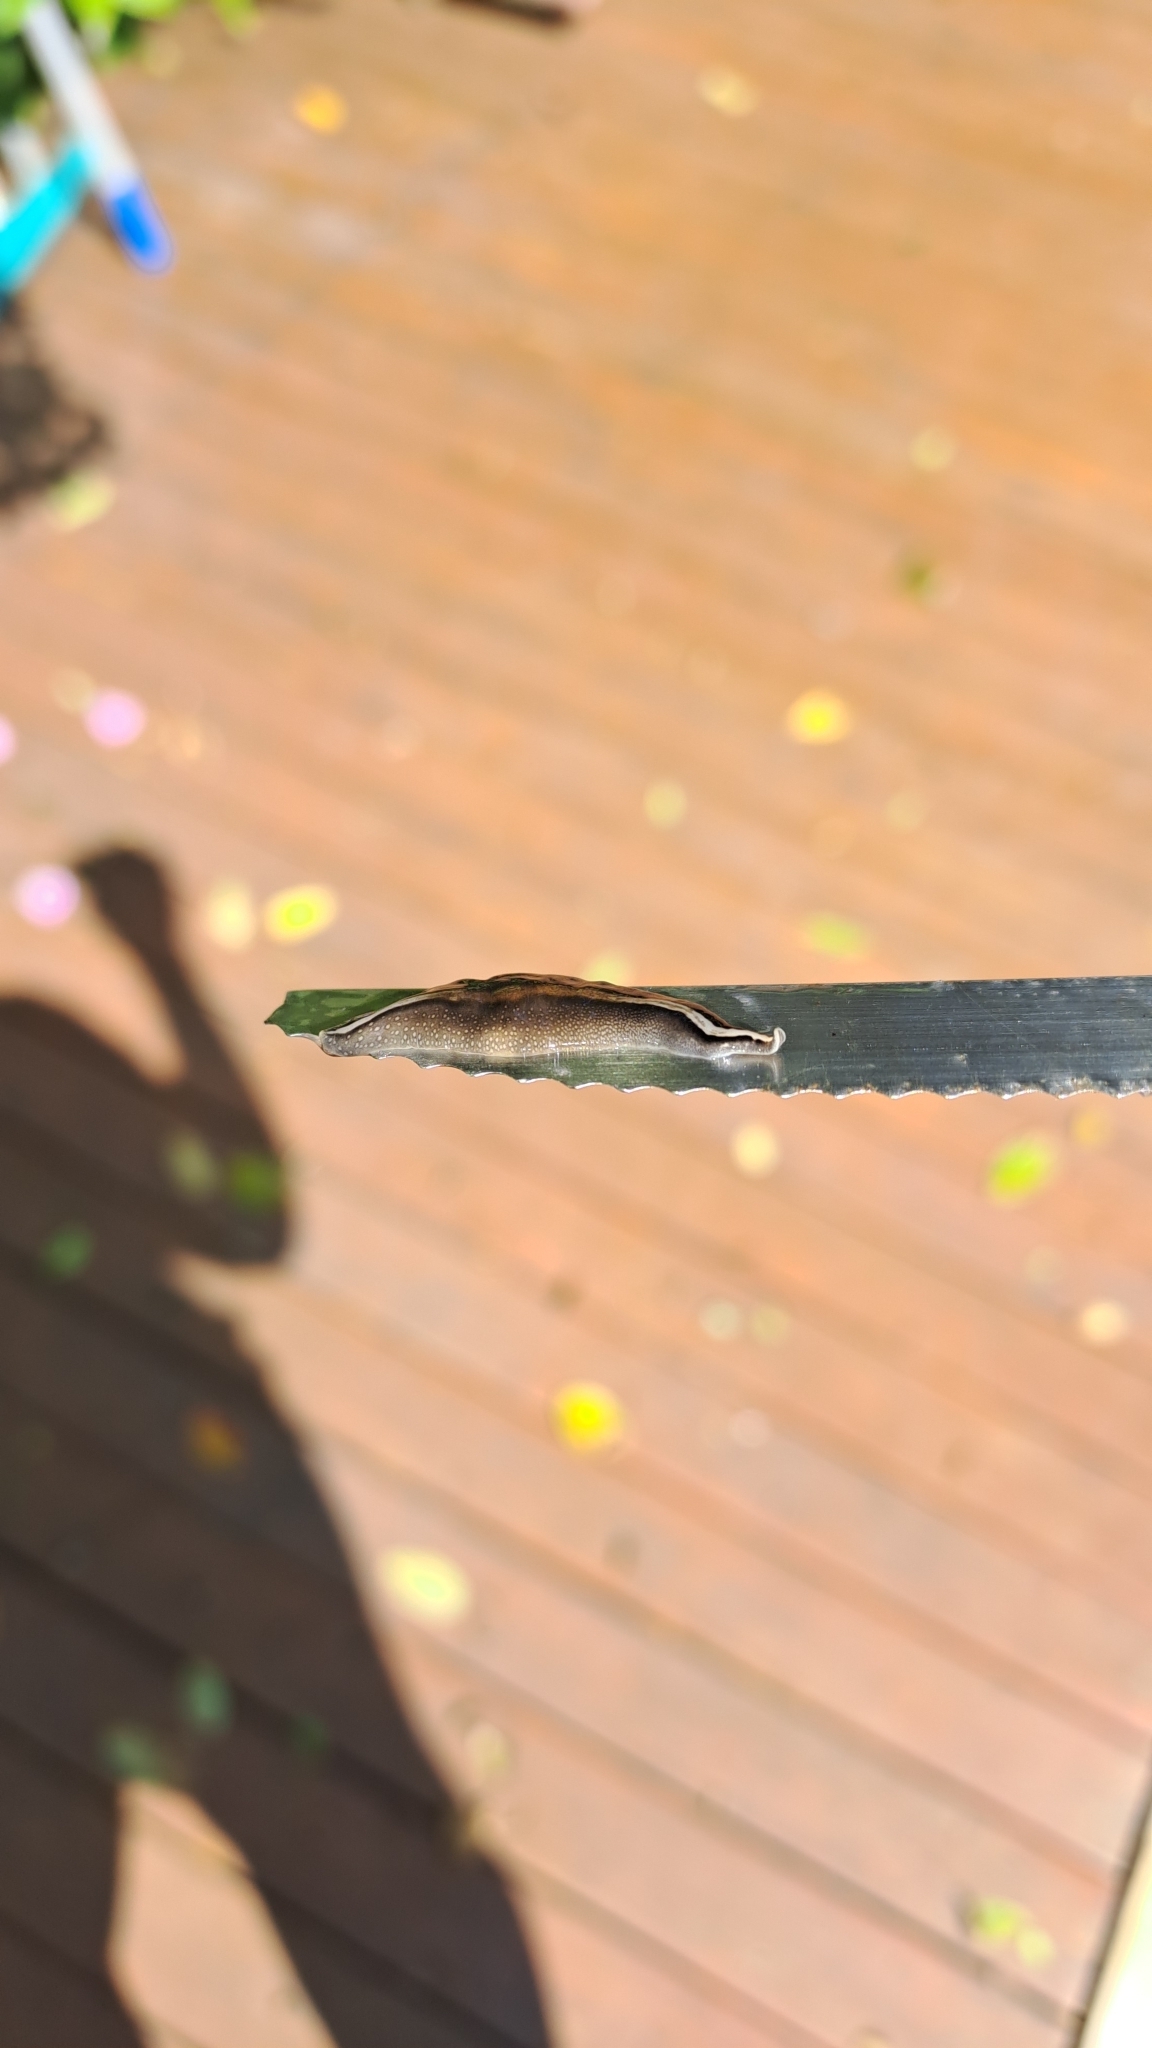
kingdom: Animalia
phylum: Platyhelminthes
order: Tricladida
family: Geoplanidae
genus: Obama
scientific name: Obama burmeisteri
